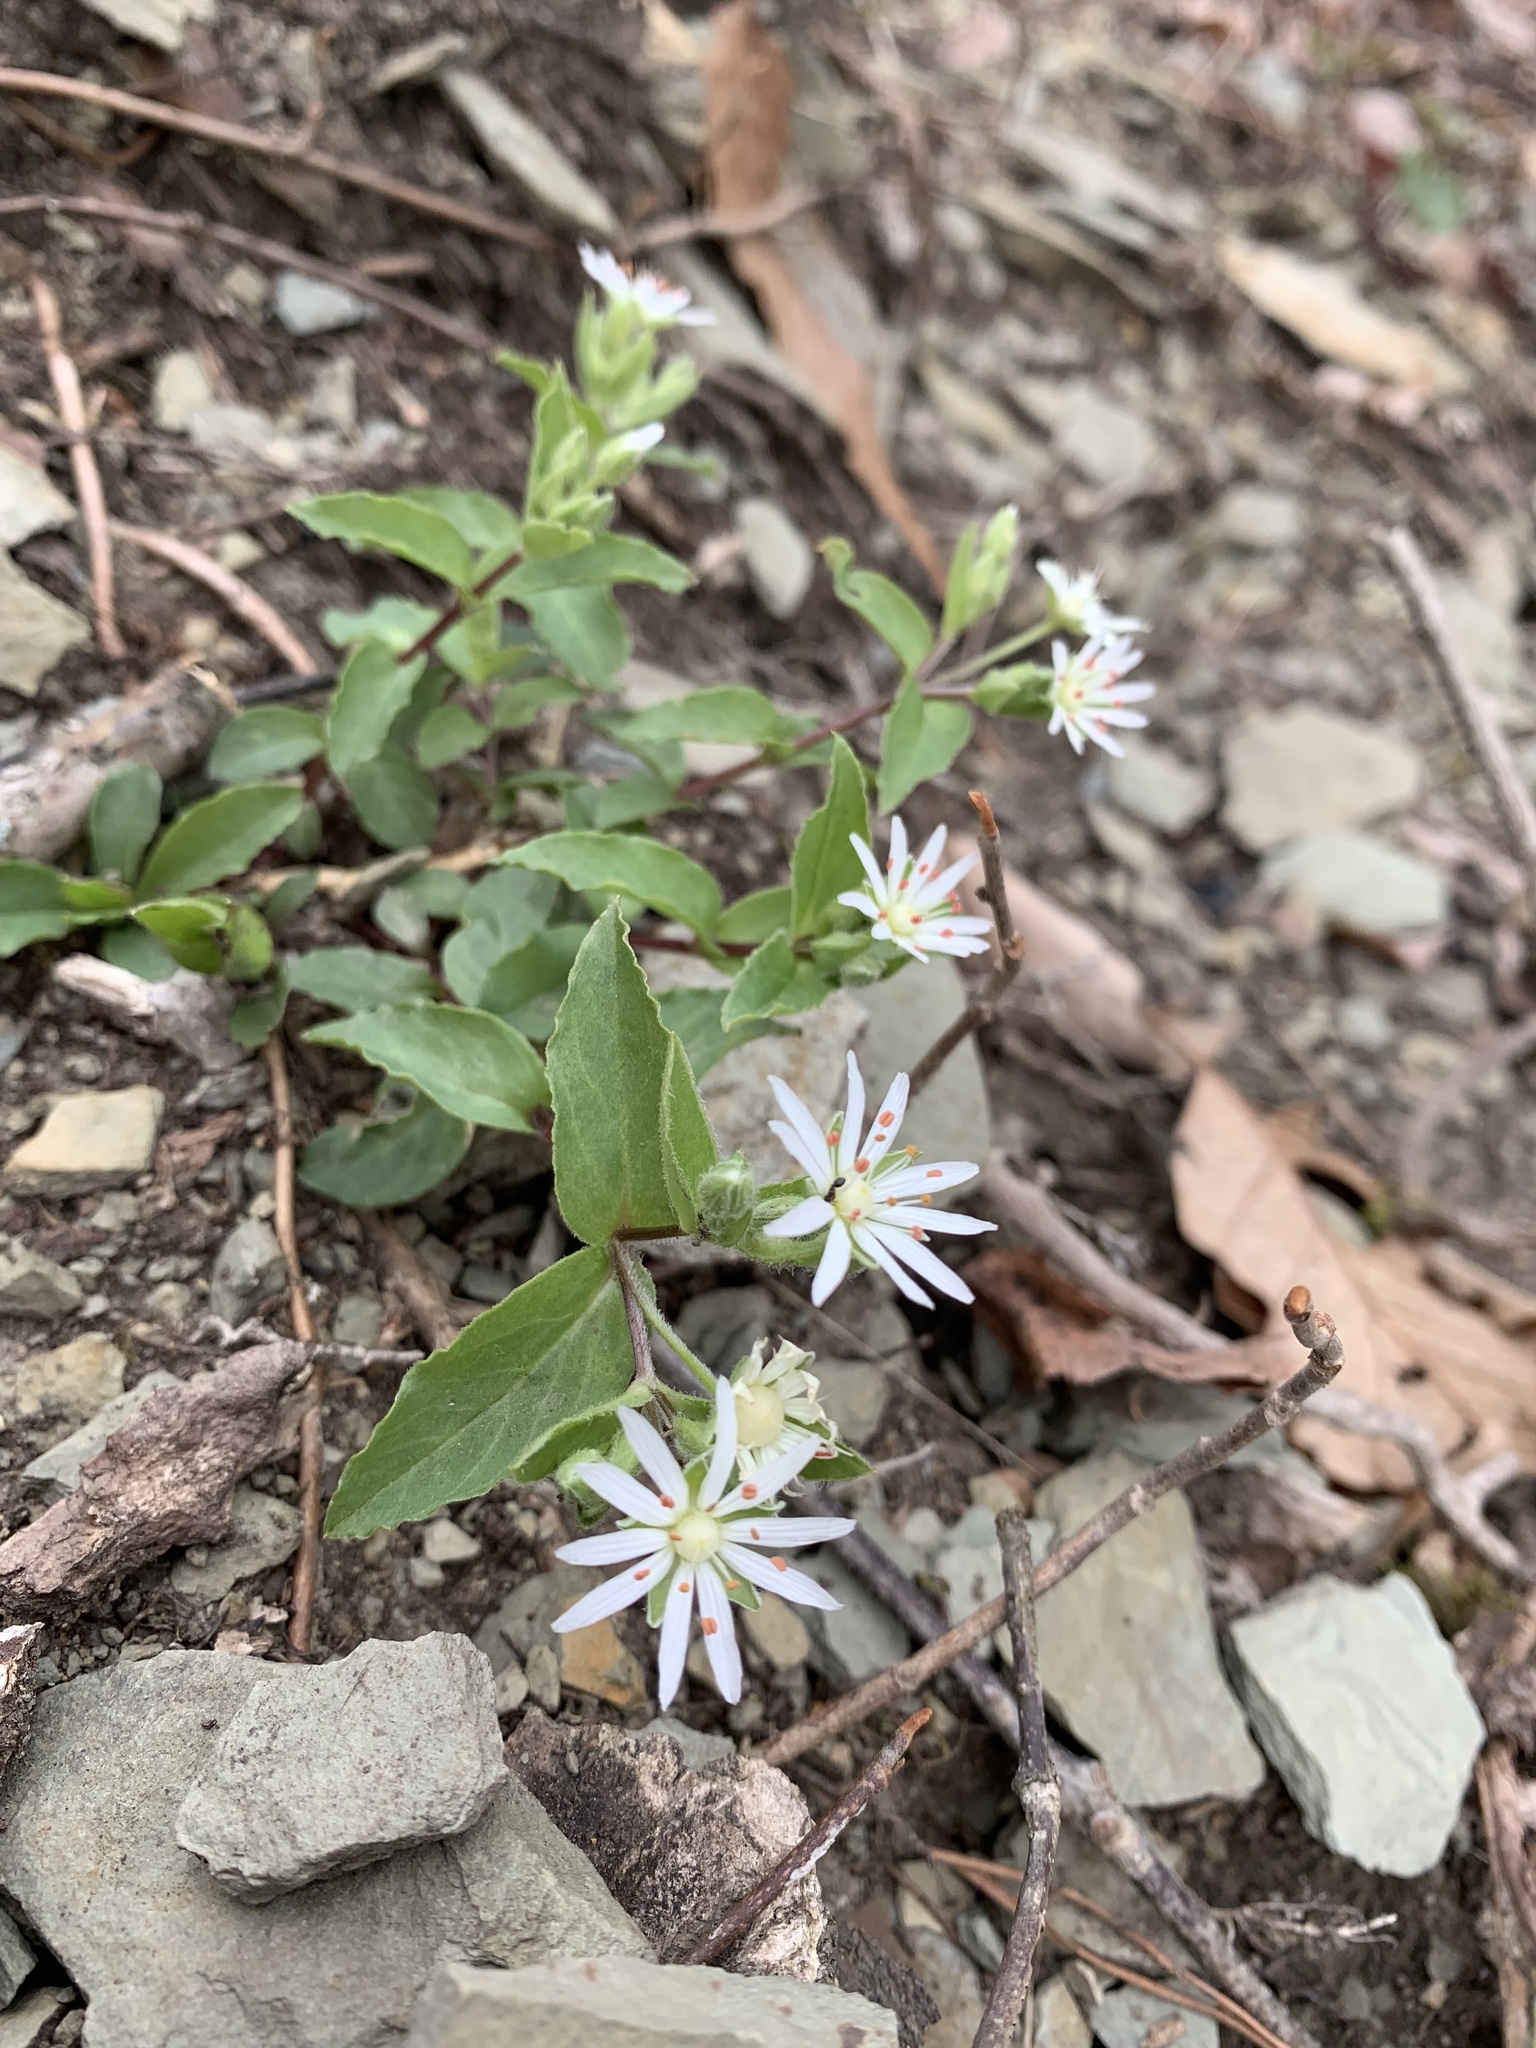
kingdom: Plantae
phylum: Tracheophyta
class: Magnoliopsida
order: Caryophyllales
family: Caryophyllaceae
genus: Stellaria
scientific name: Stellaria pubera
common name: Star chickweed
